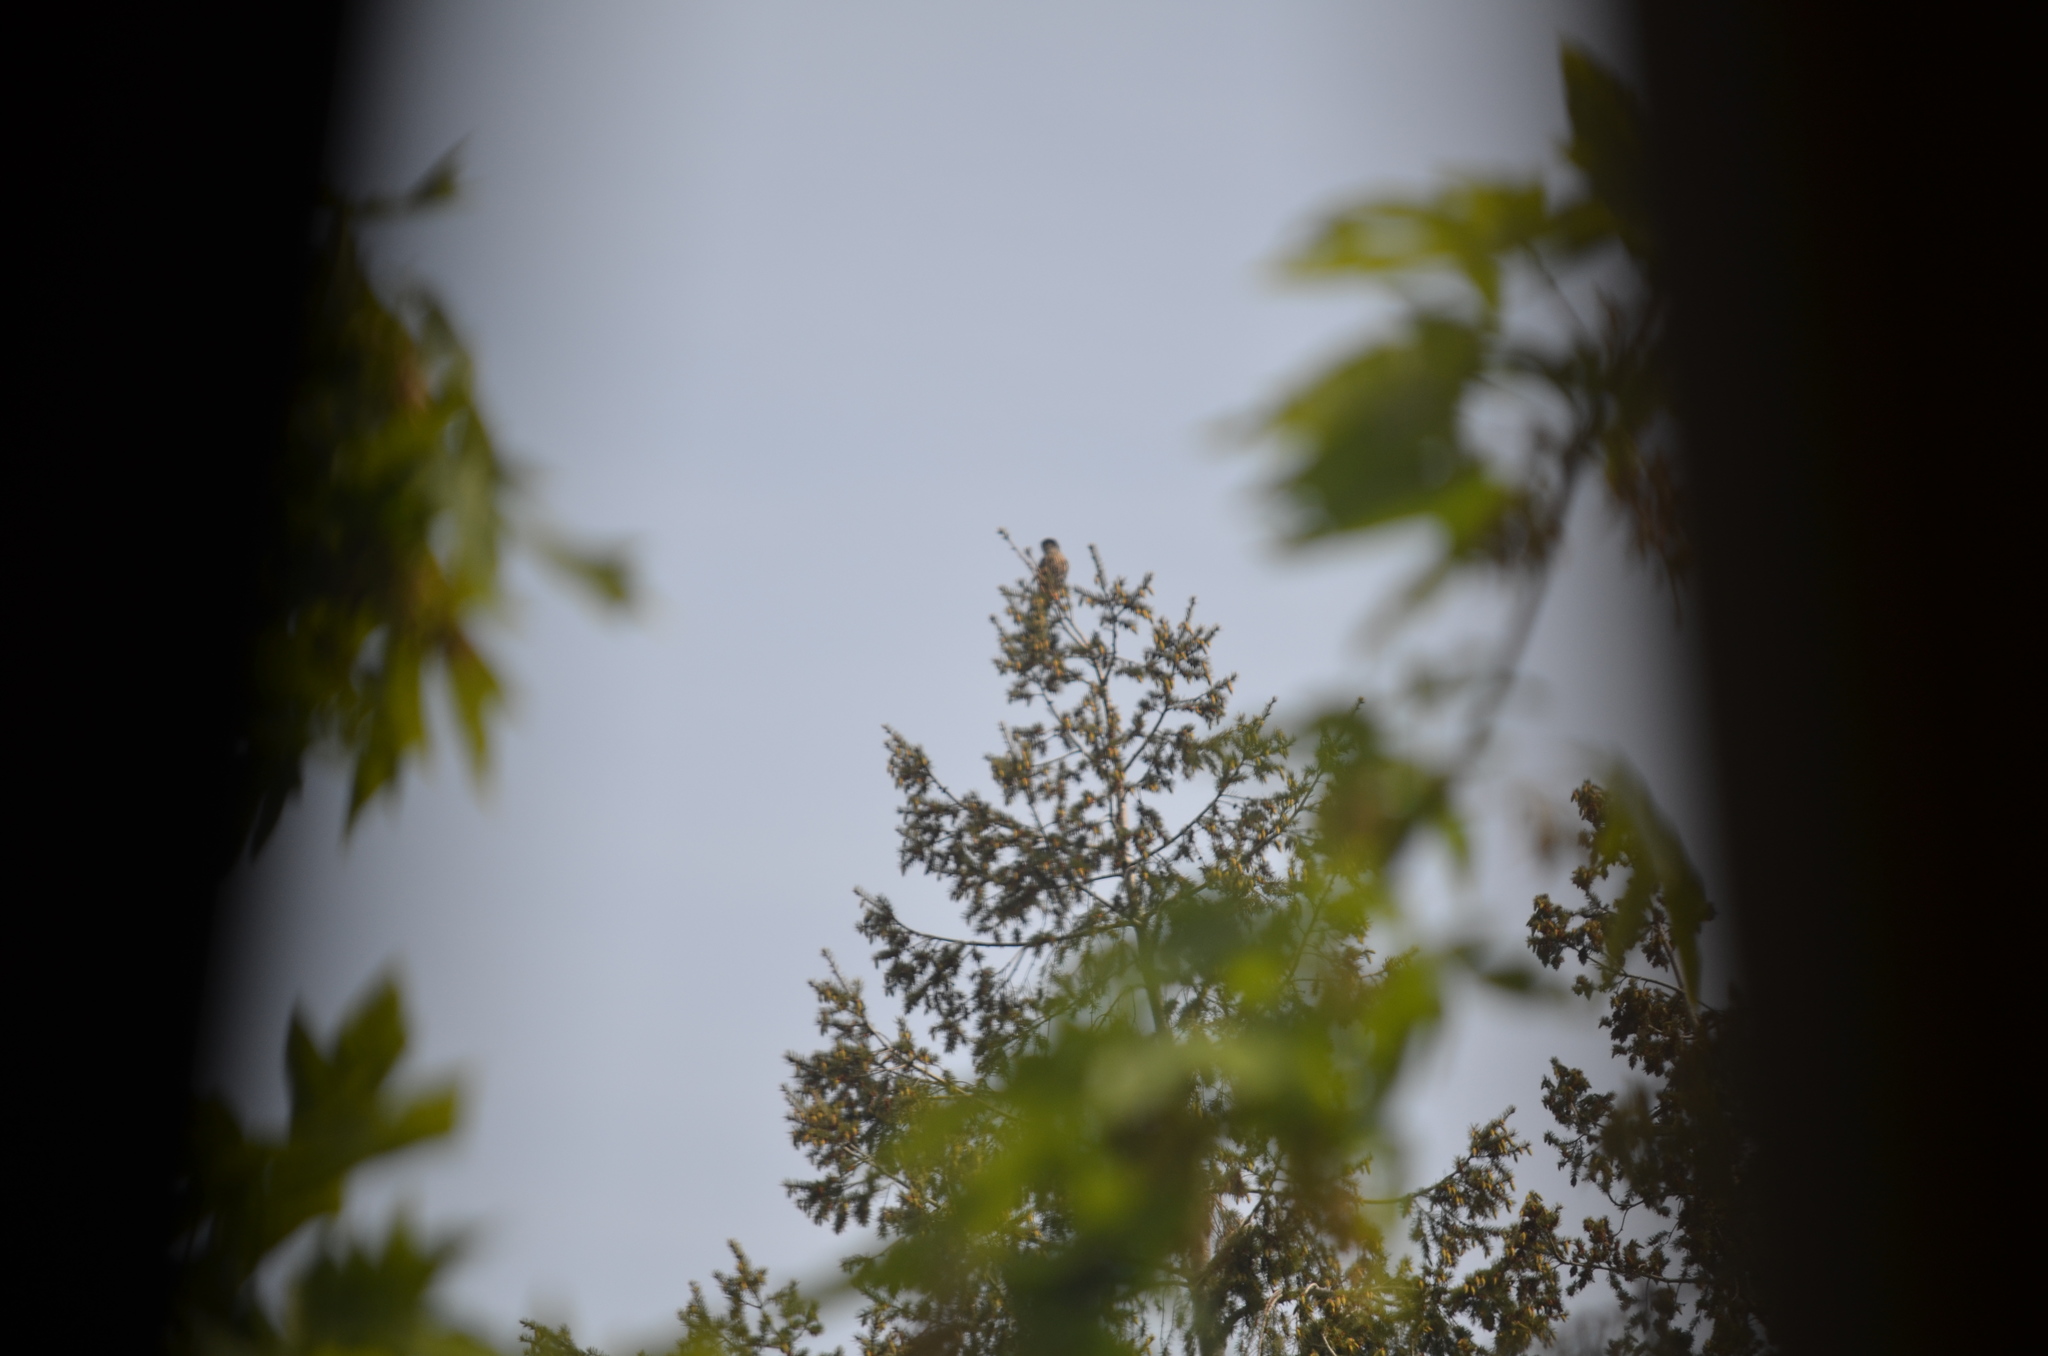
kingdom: Animalia
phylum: Chordata
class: Aves
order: Falconiformes
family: Falconidae
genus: Falco
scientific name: Falco columbarius
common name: Merlin
